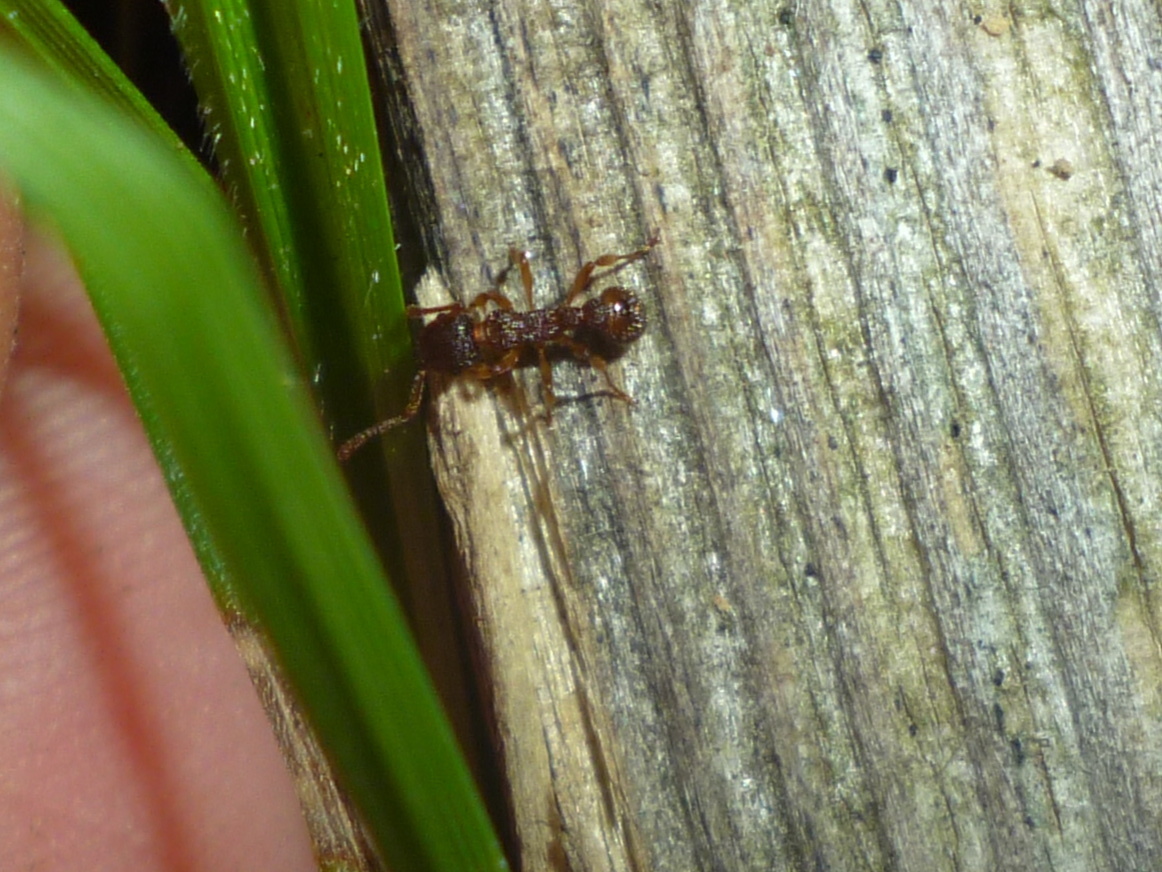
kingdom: Animalia
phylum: Arthropoda
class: Insecta
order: Hymenoptera
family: Formicidae
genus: Myrmica
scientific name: Myrmica
